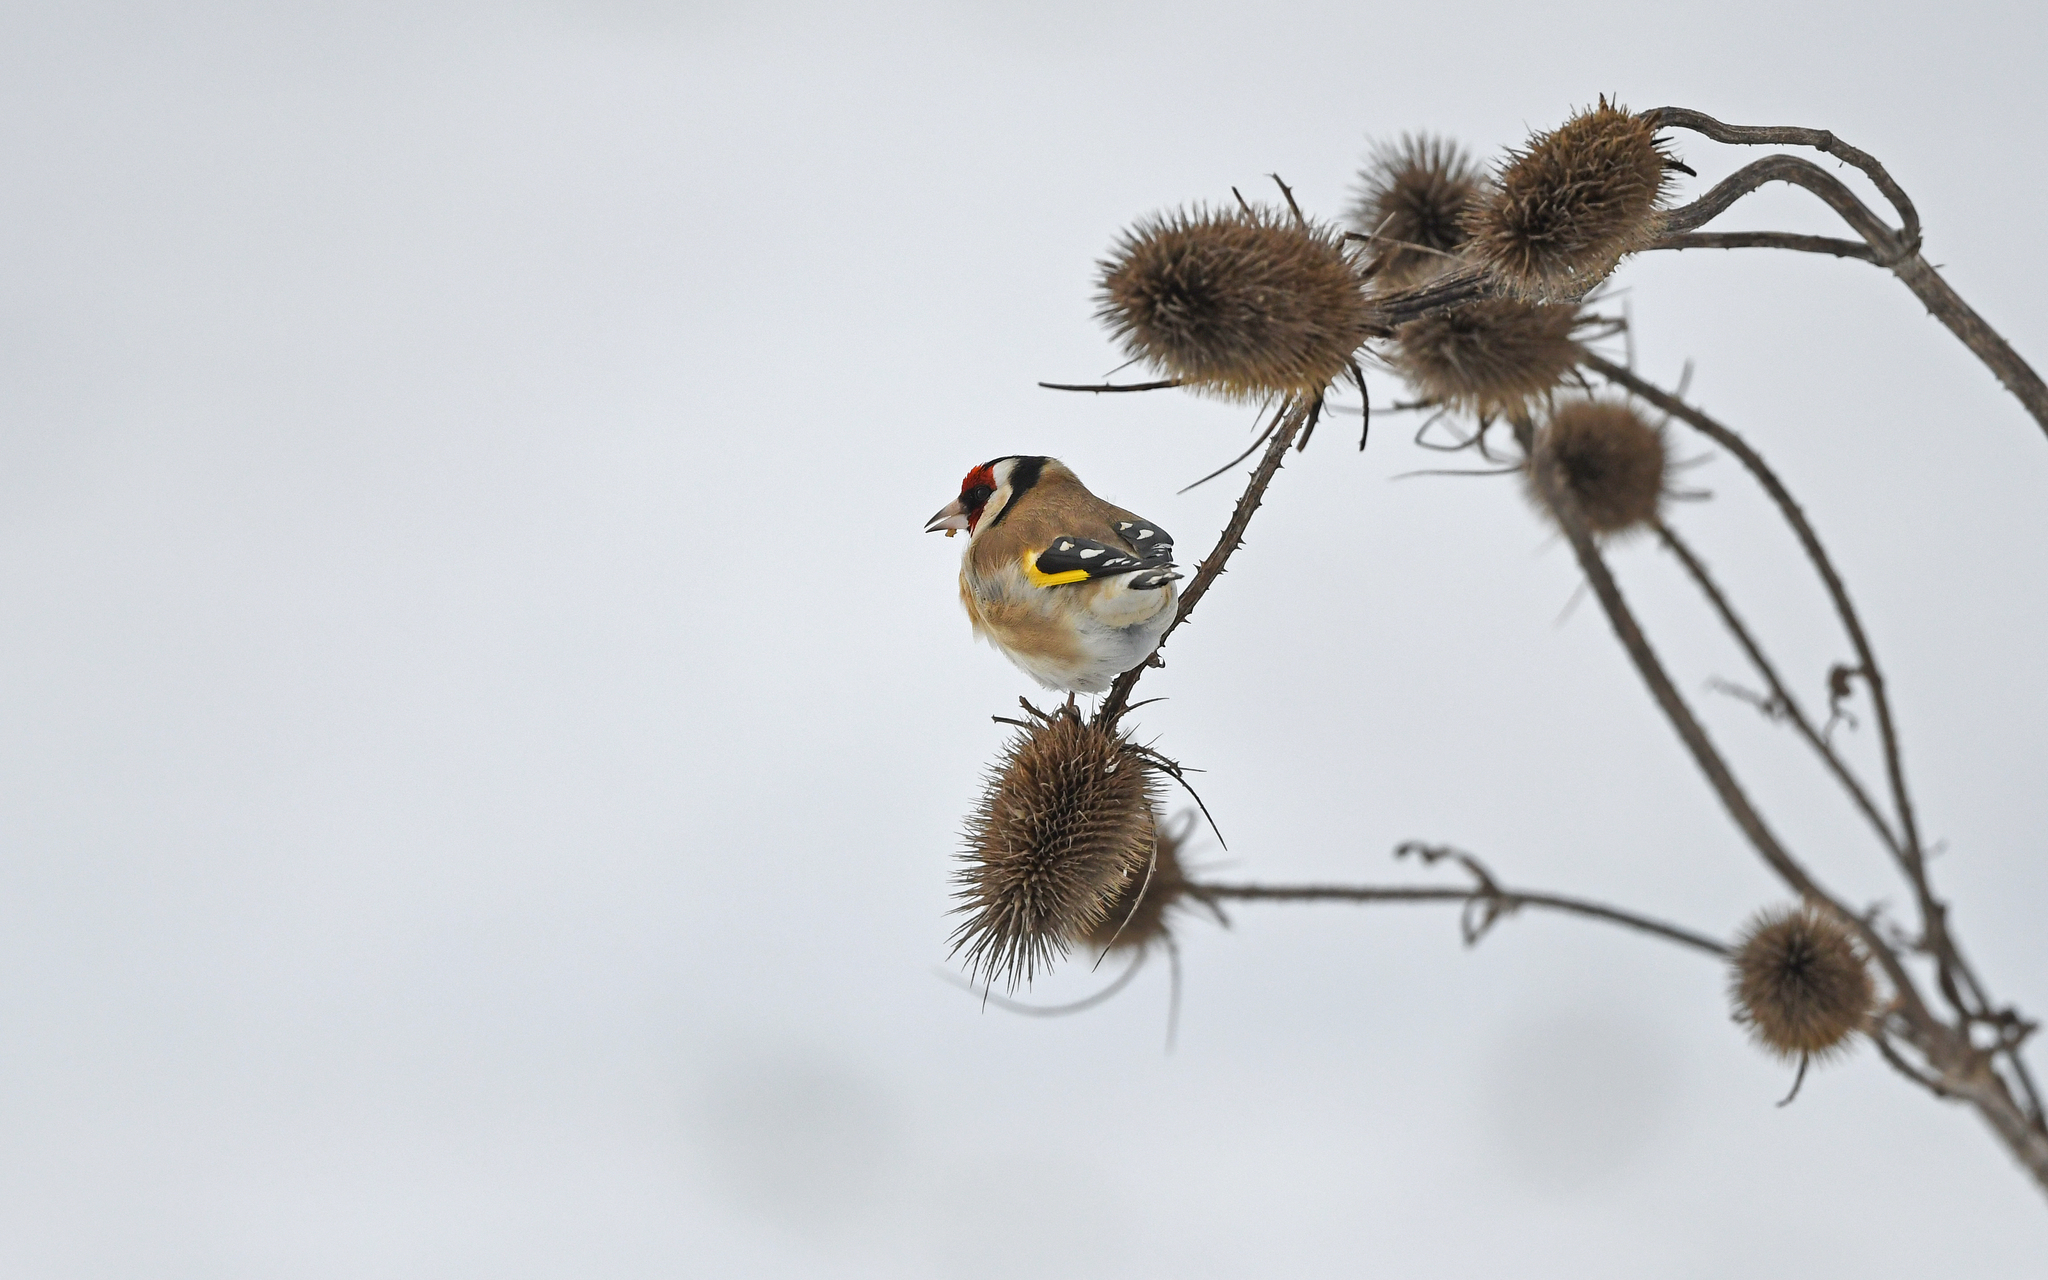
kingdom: Animalia
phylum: Chordata
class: Aves
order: Passeriformes
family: Fringillidae
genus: Carduelis
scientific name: Carduelis carduelis
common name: European goldfinch
